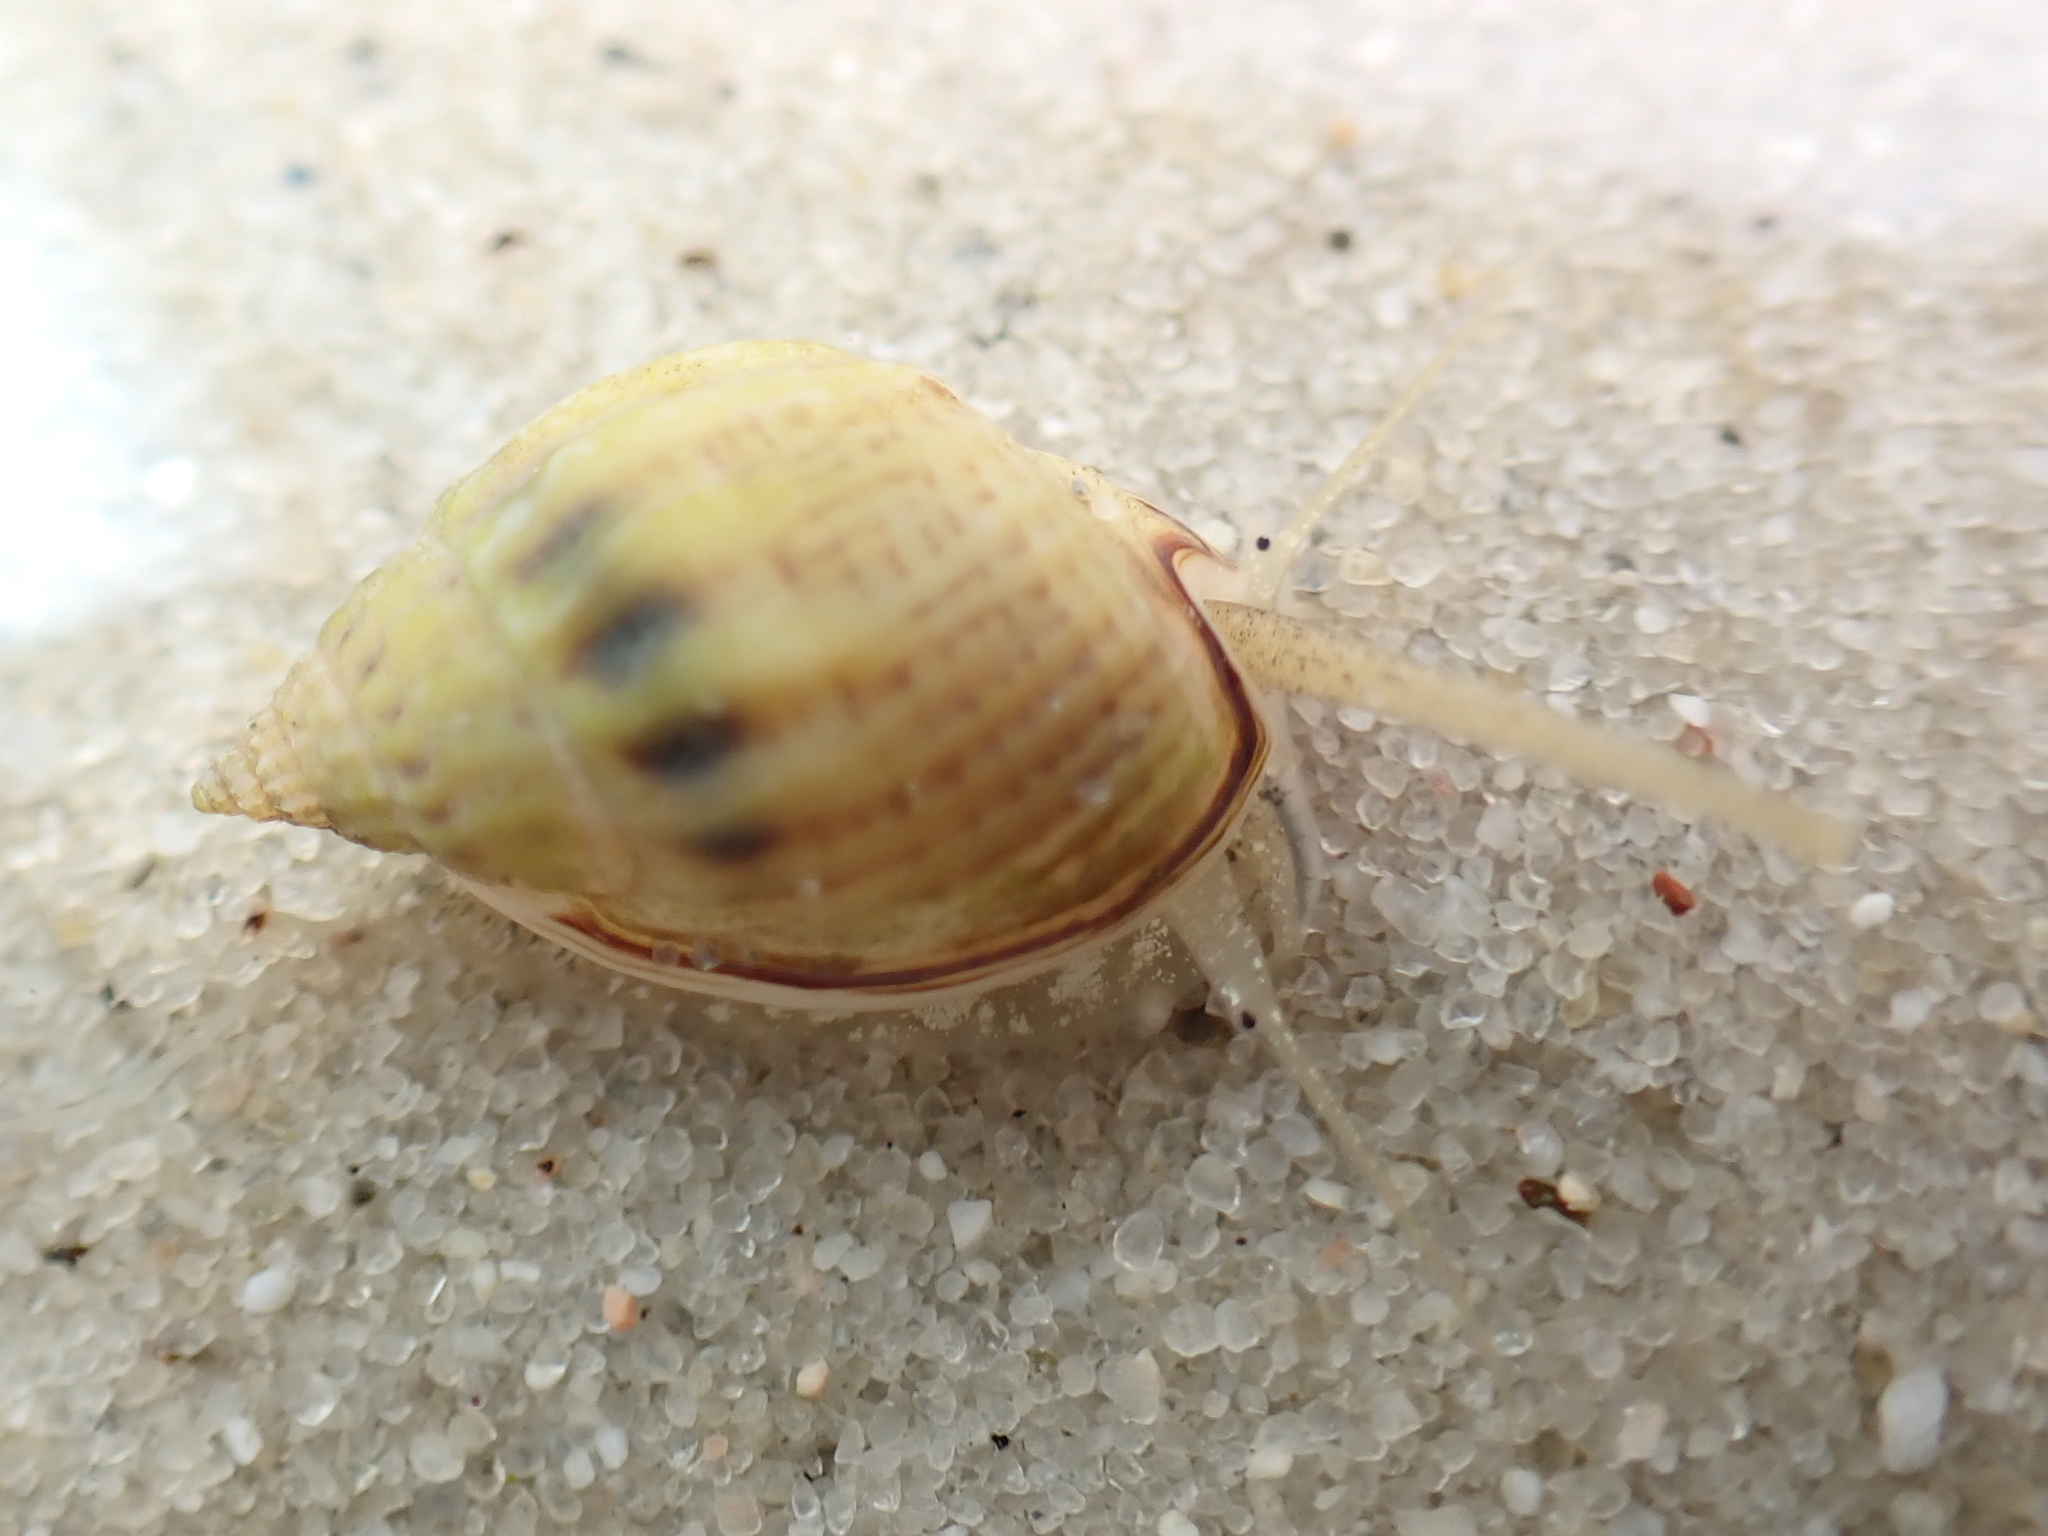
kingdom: Animalia
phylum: Mollusca
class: Gastropoda
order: Neogastropoda
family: Nassariidae
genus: Nassarius
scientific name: Nassarius jonasii
